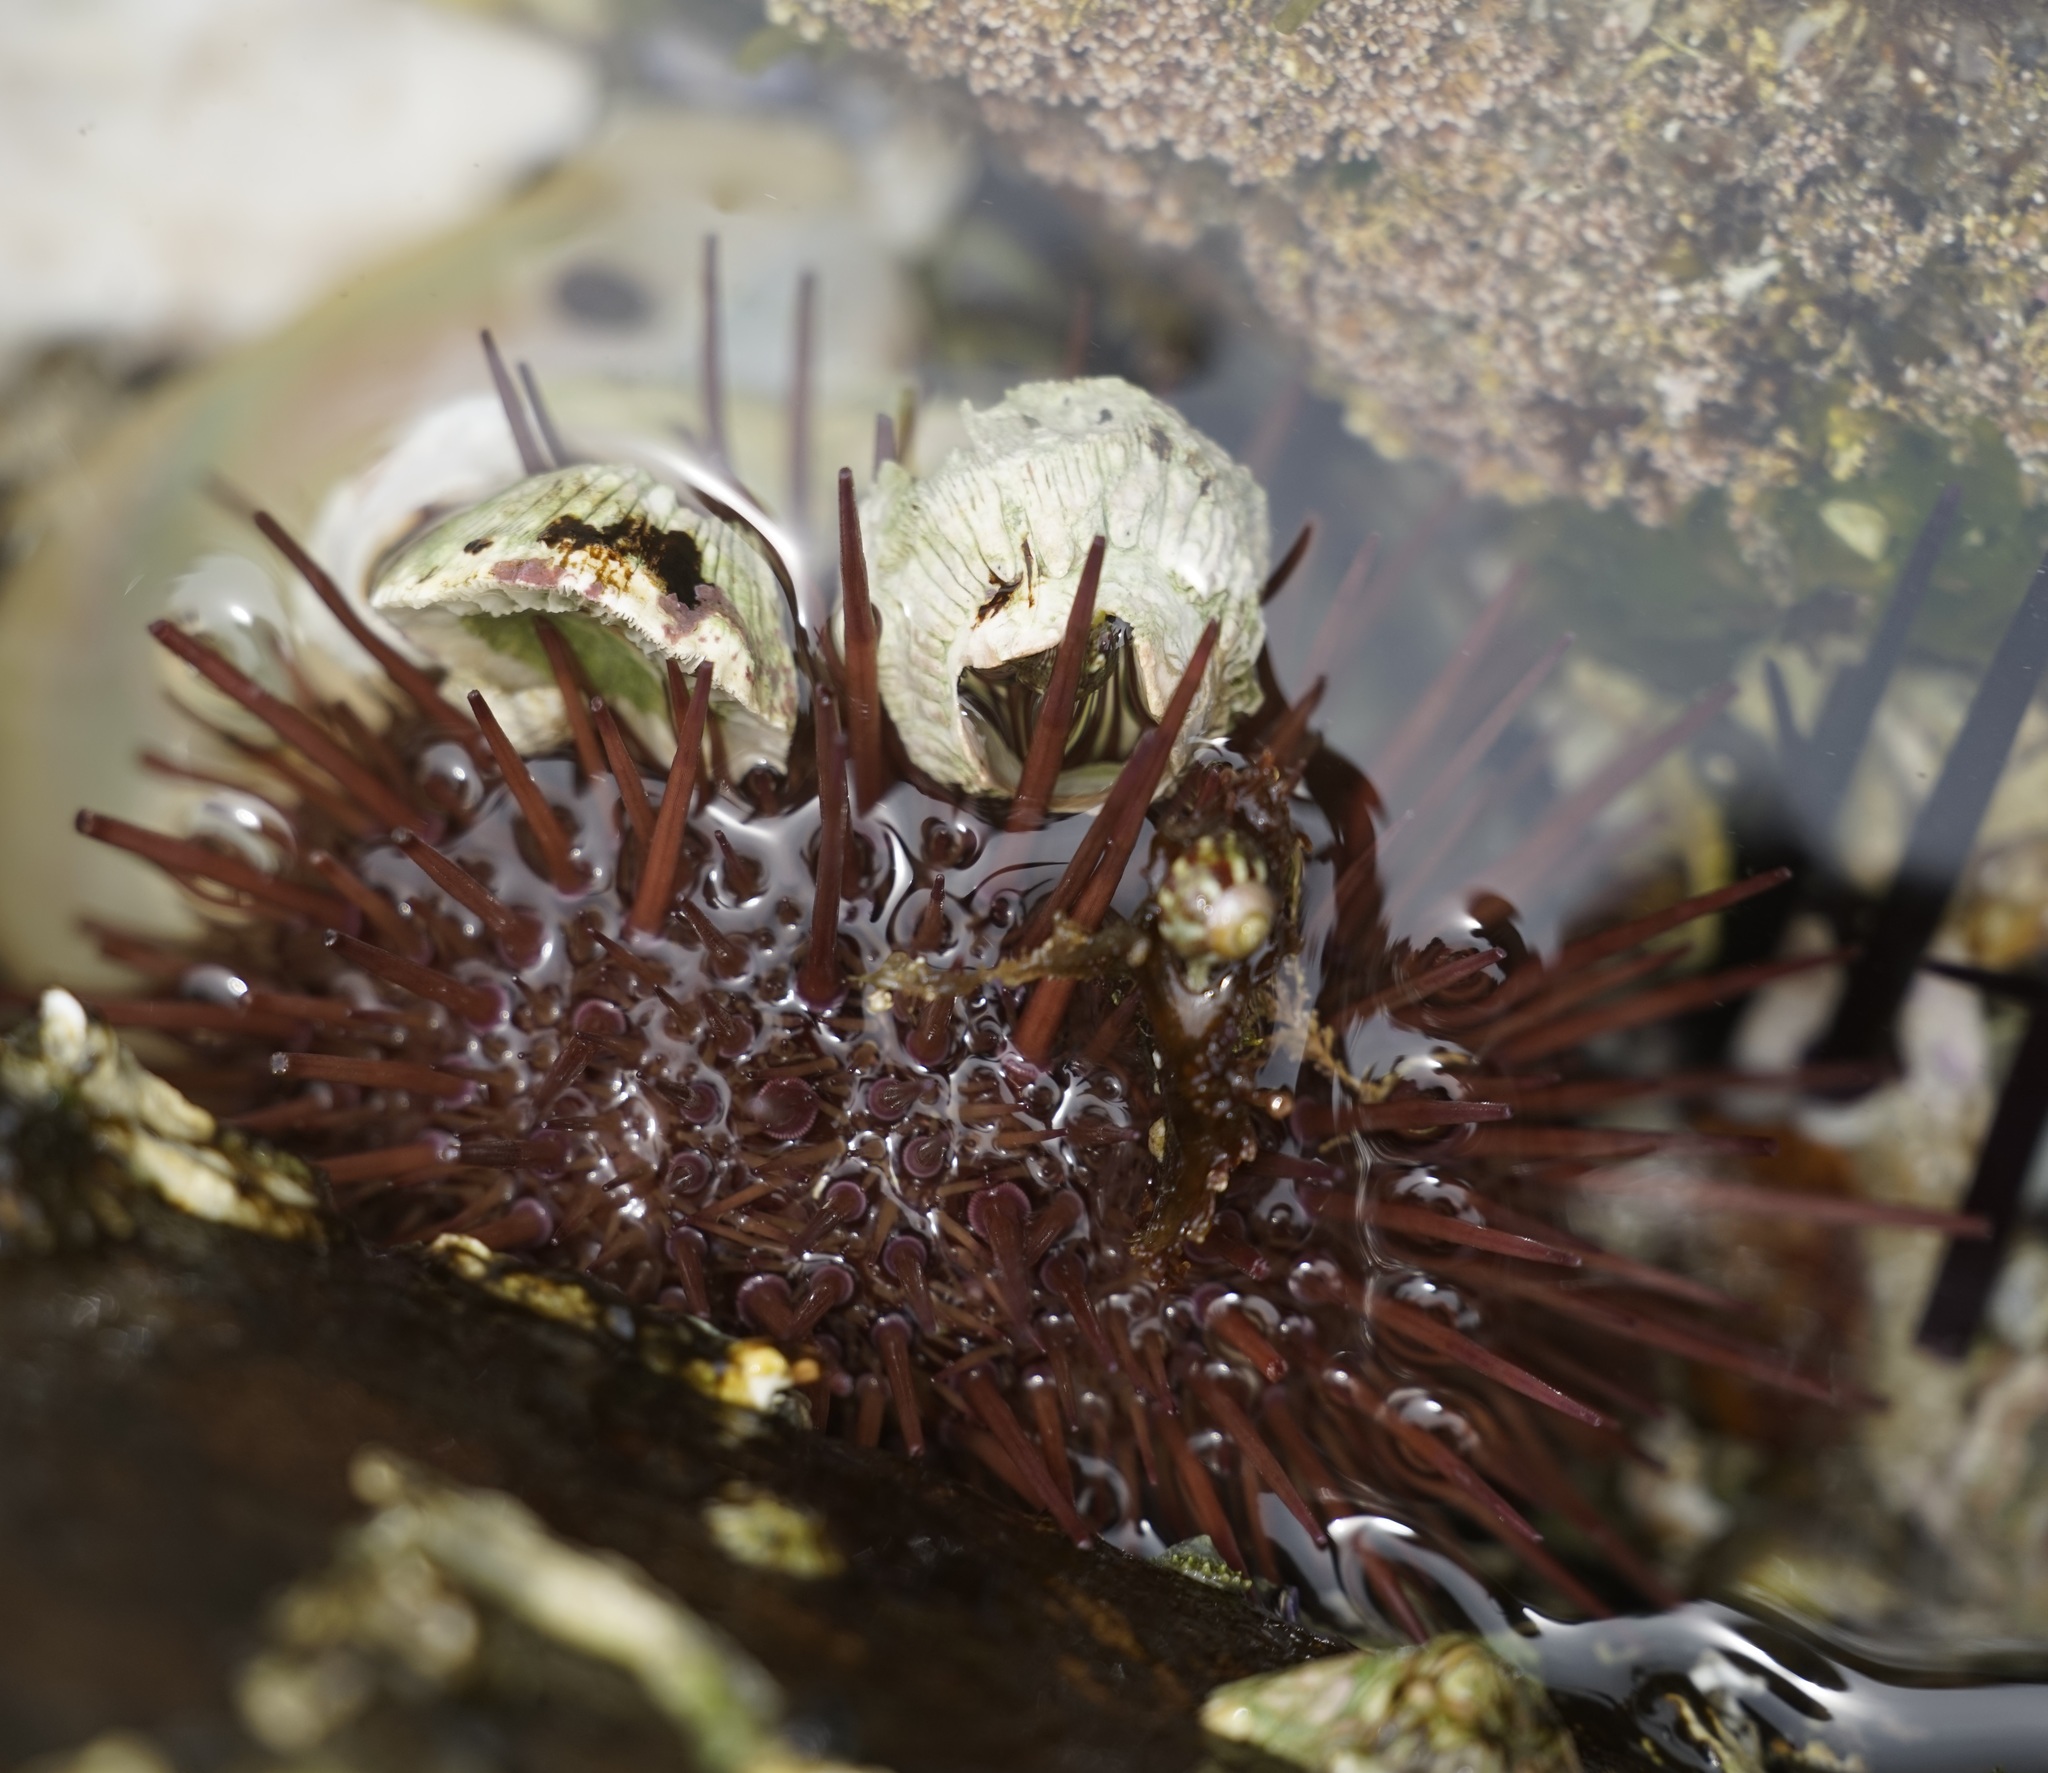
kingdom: Animalia
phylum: Echinodermata
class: Echinoidea
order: Camarodonta
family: Echinometridae
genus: Heliocidaris
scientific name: Heliocidaris erythrogramma
